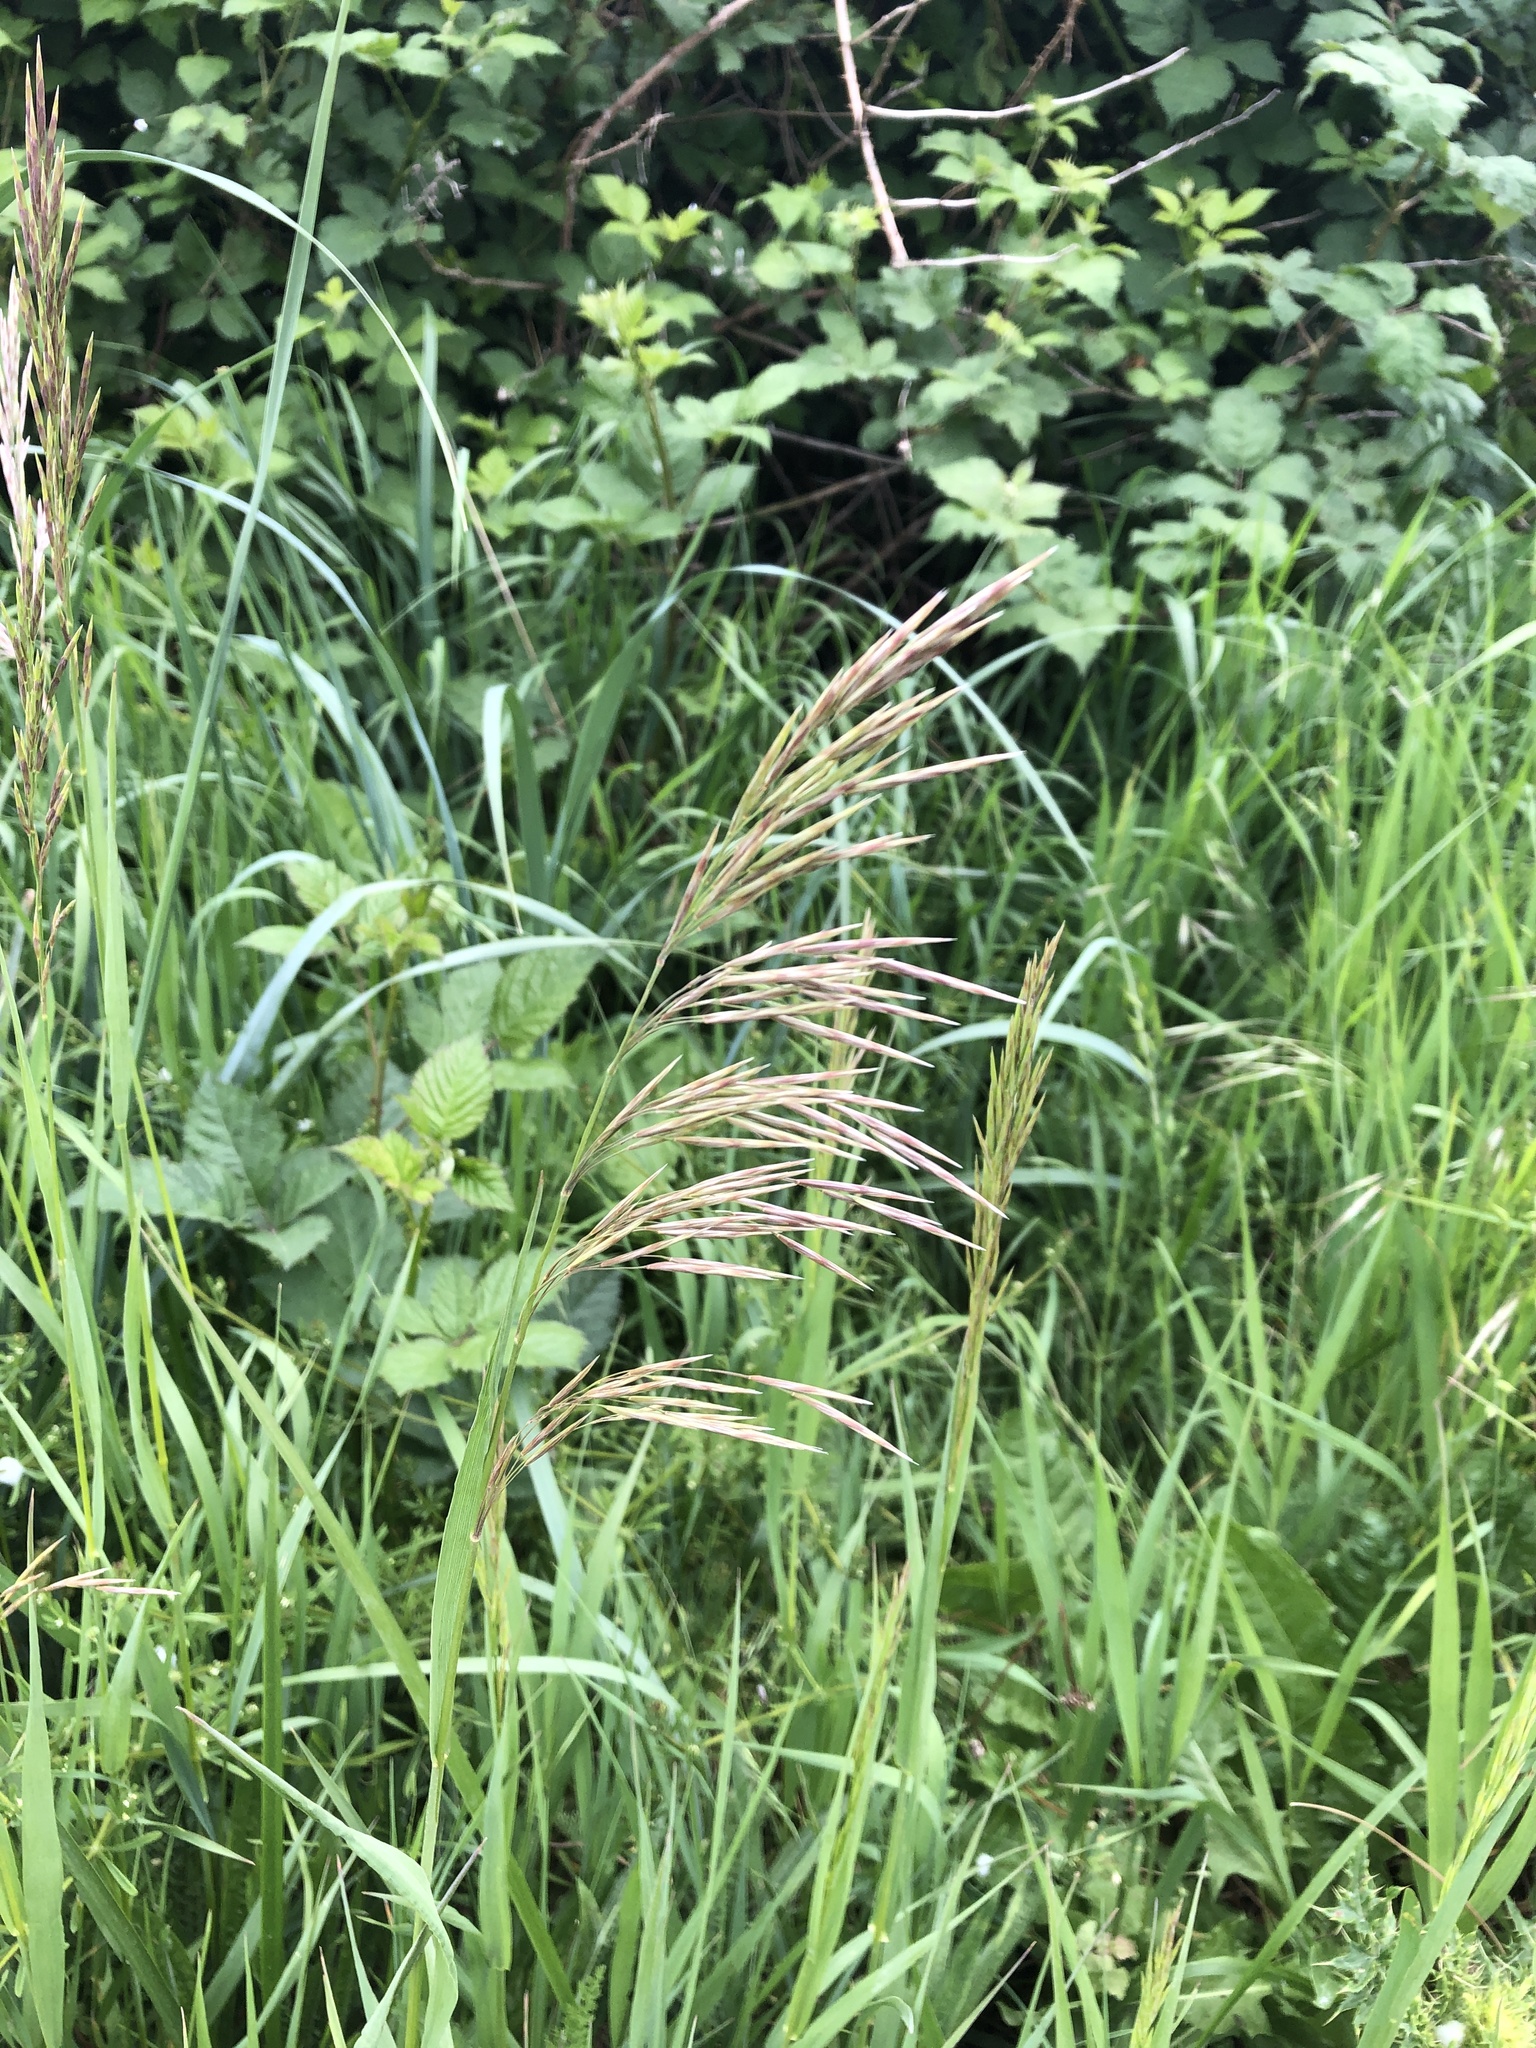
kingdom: Plantae
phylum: Tracheophyta
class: Liliopsida
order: Poales
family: Poaceae
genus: Bromus
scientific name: Bromus inermis
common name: Smooth brome
